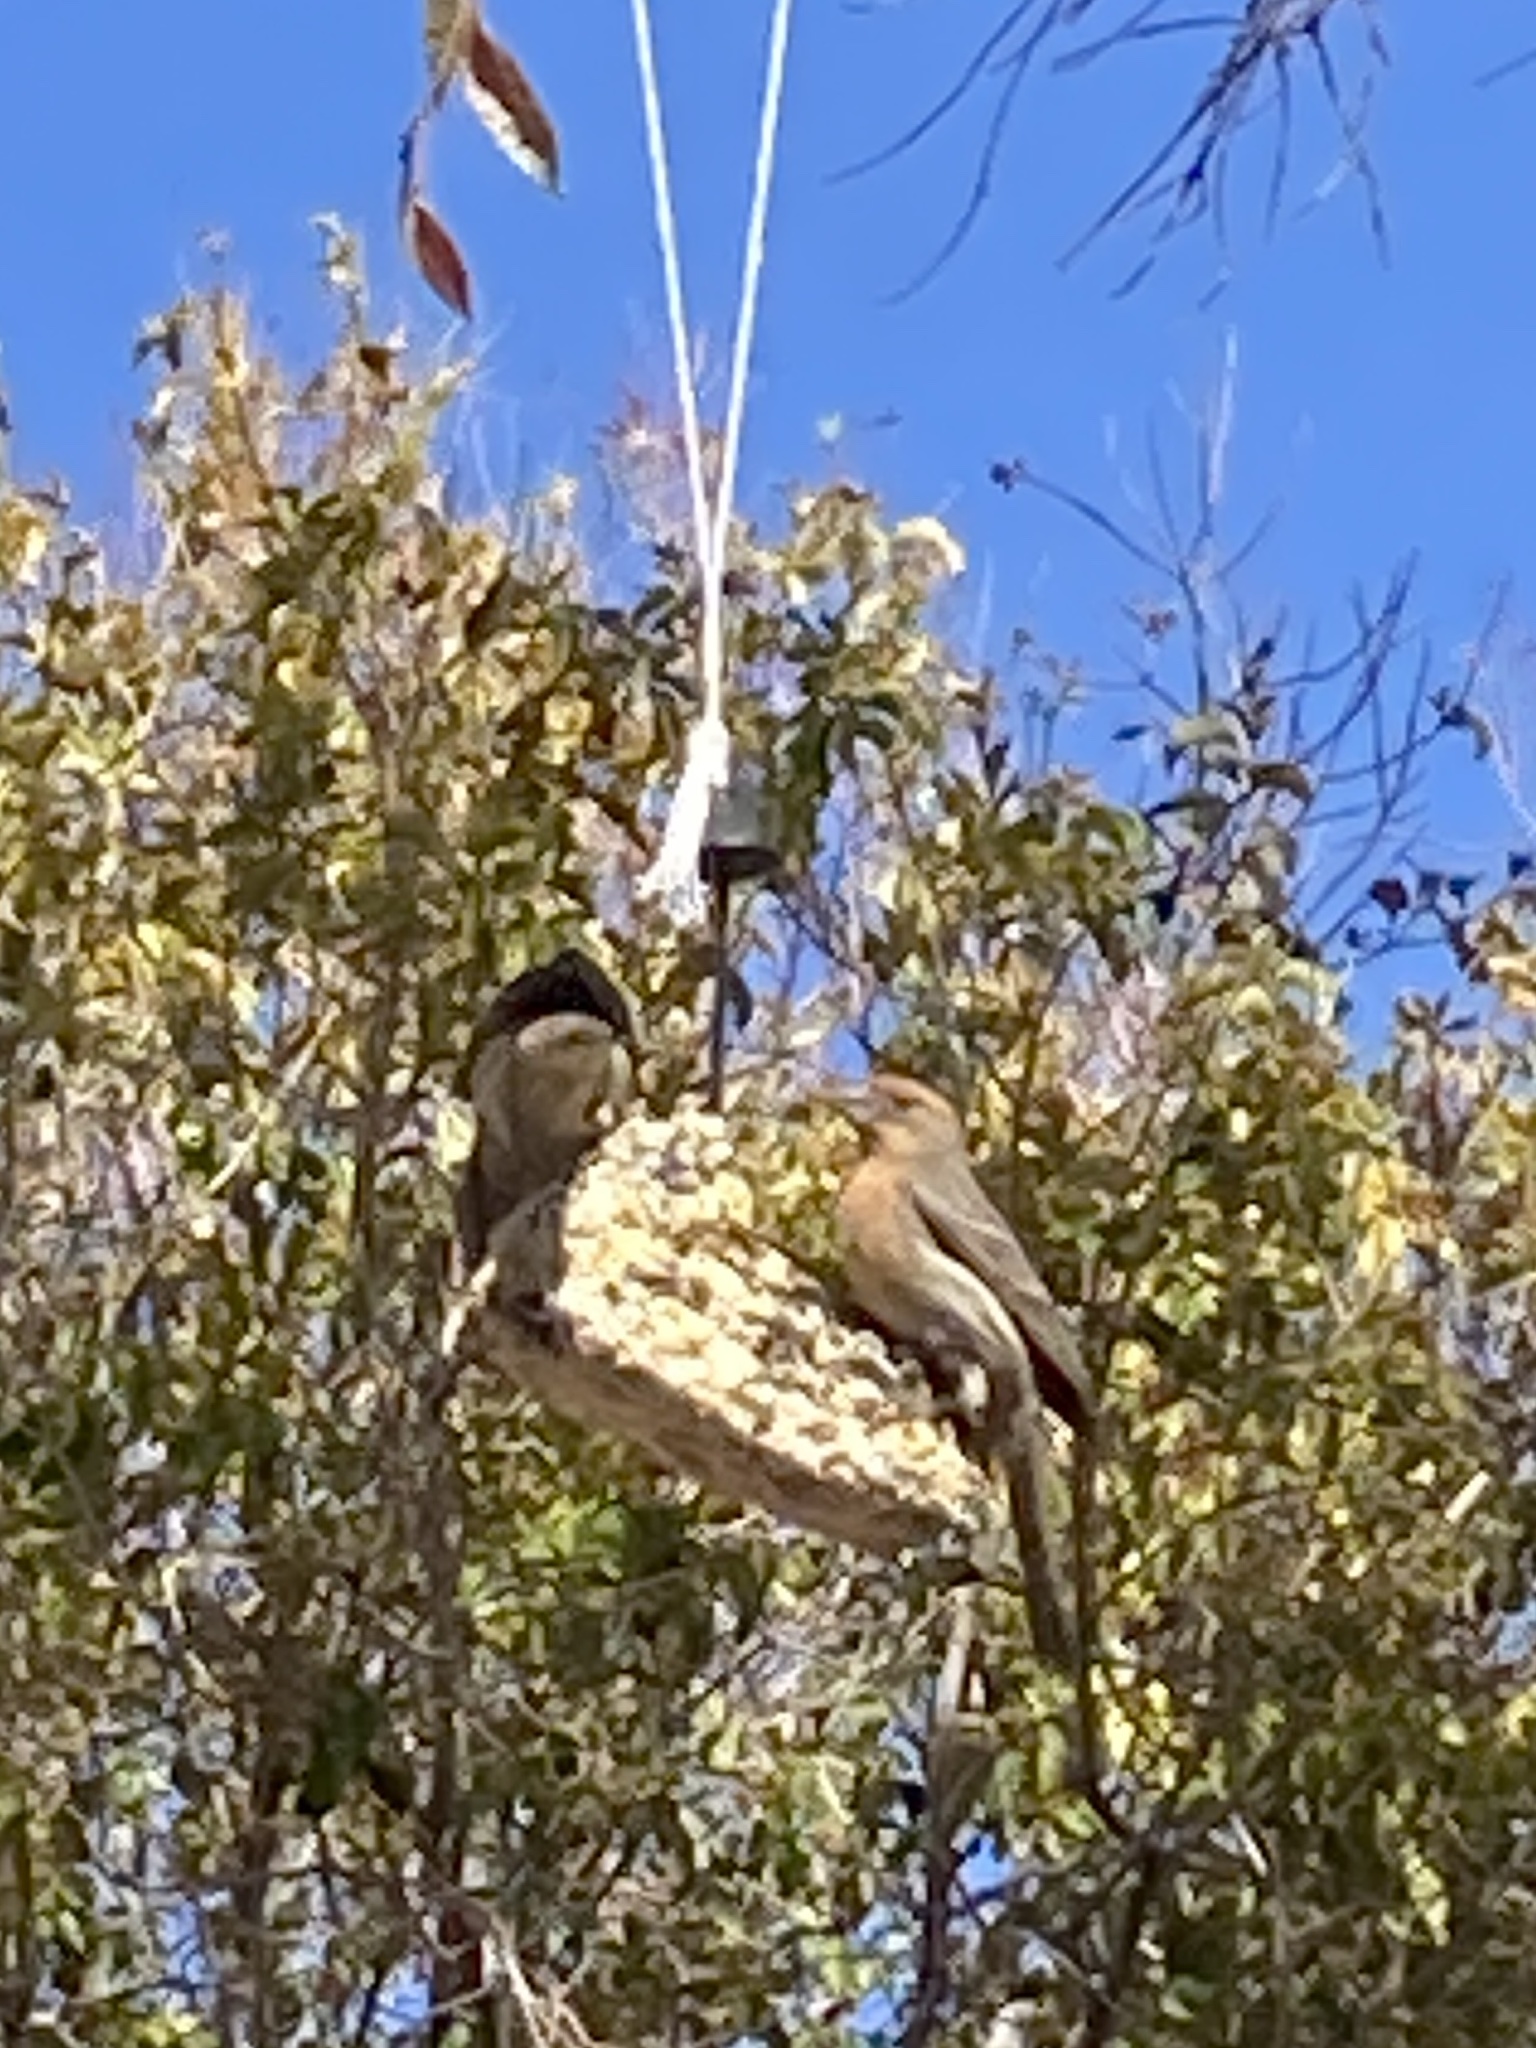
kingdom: Animalia
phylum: Chordata
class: Aves
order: Passeriformes
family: Fringillidae
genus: Haemorhous
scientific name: Haemorhous mexicanus
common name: House finch
